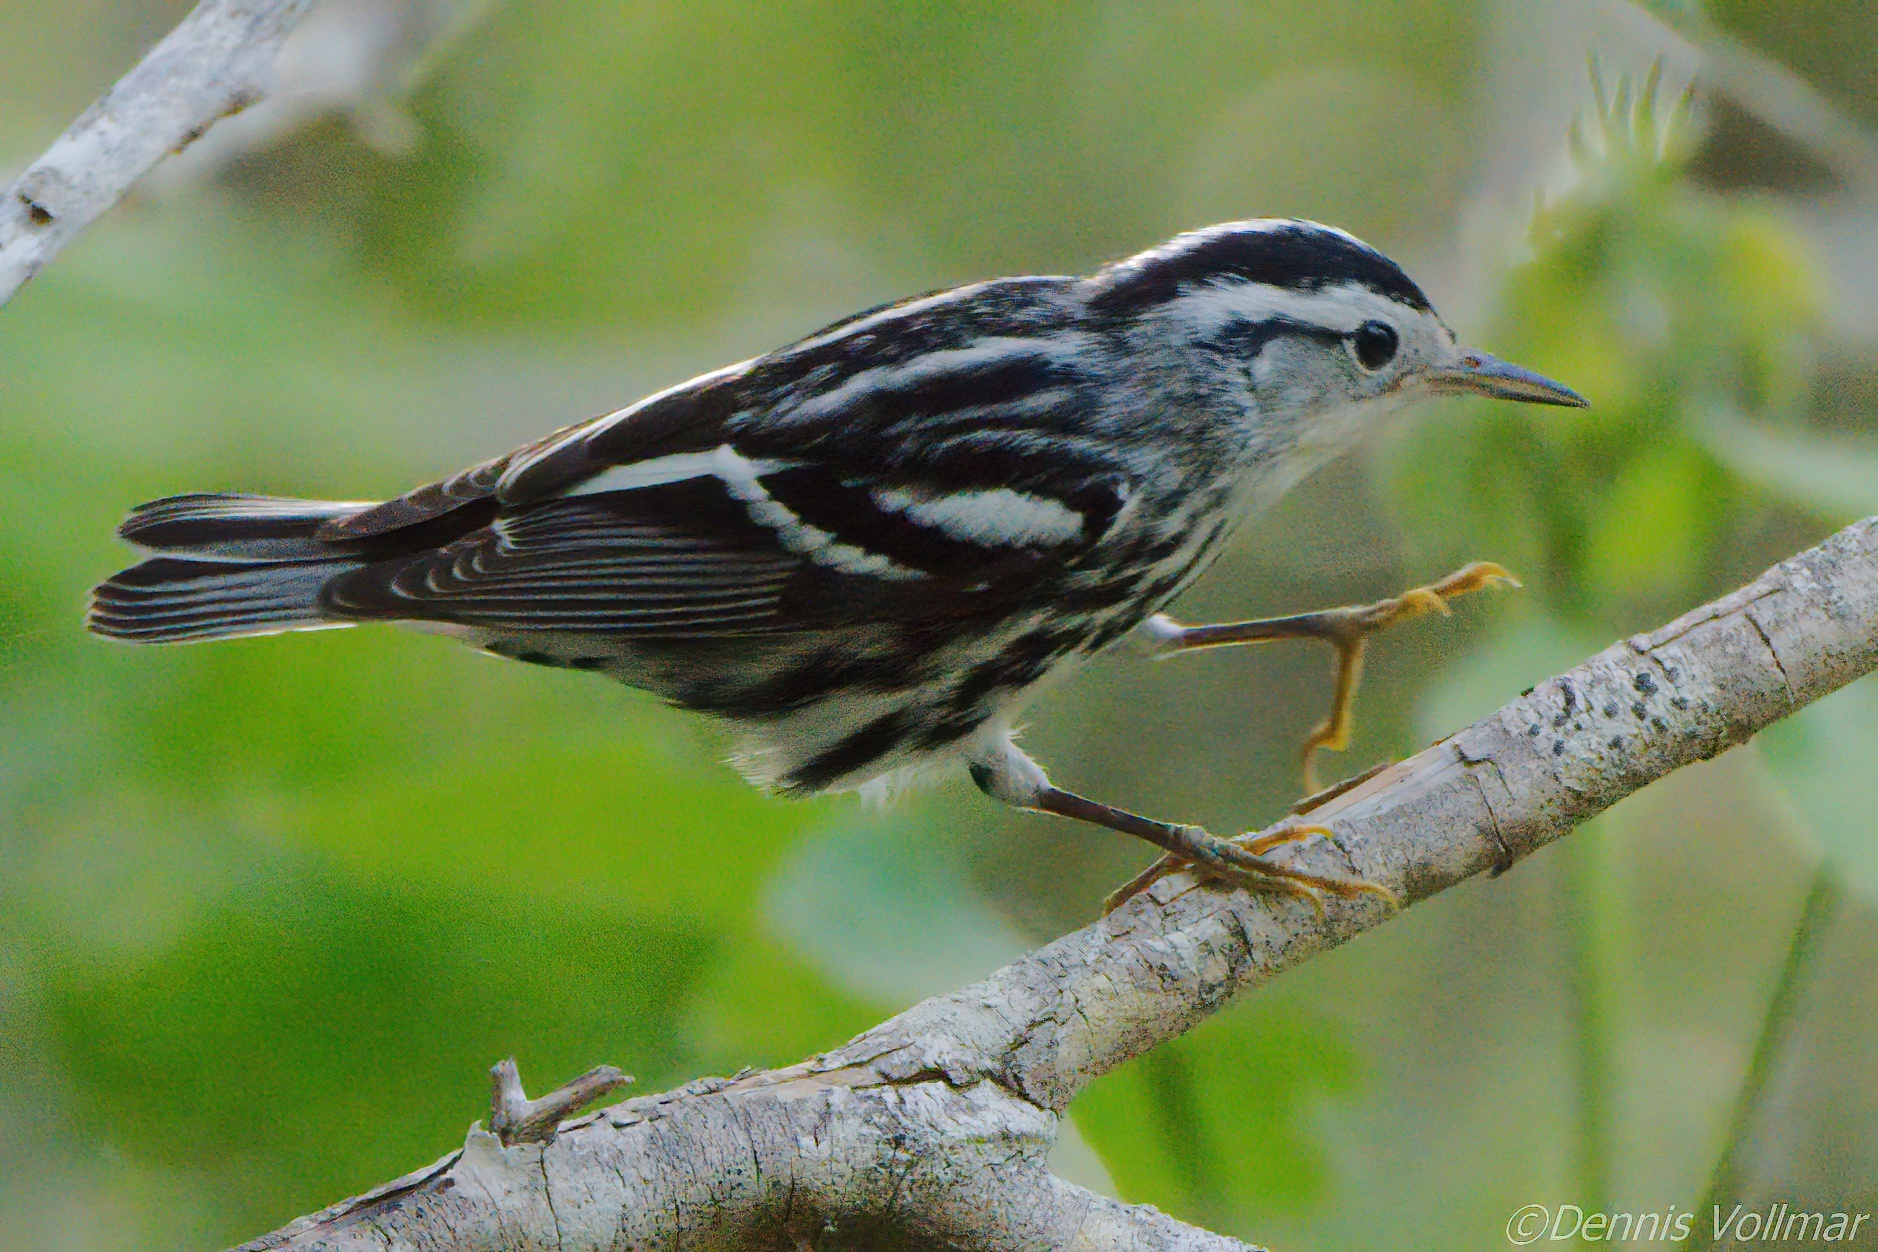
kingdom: Animalia
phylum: Chordata
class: Aves
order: Passeriformes
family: Parulidae
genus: Mniotilta
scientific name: Mniotilta varia
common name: Black-and-white warbler
